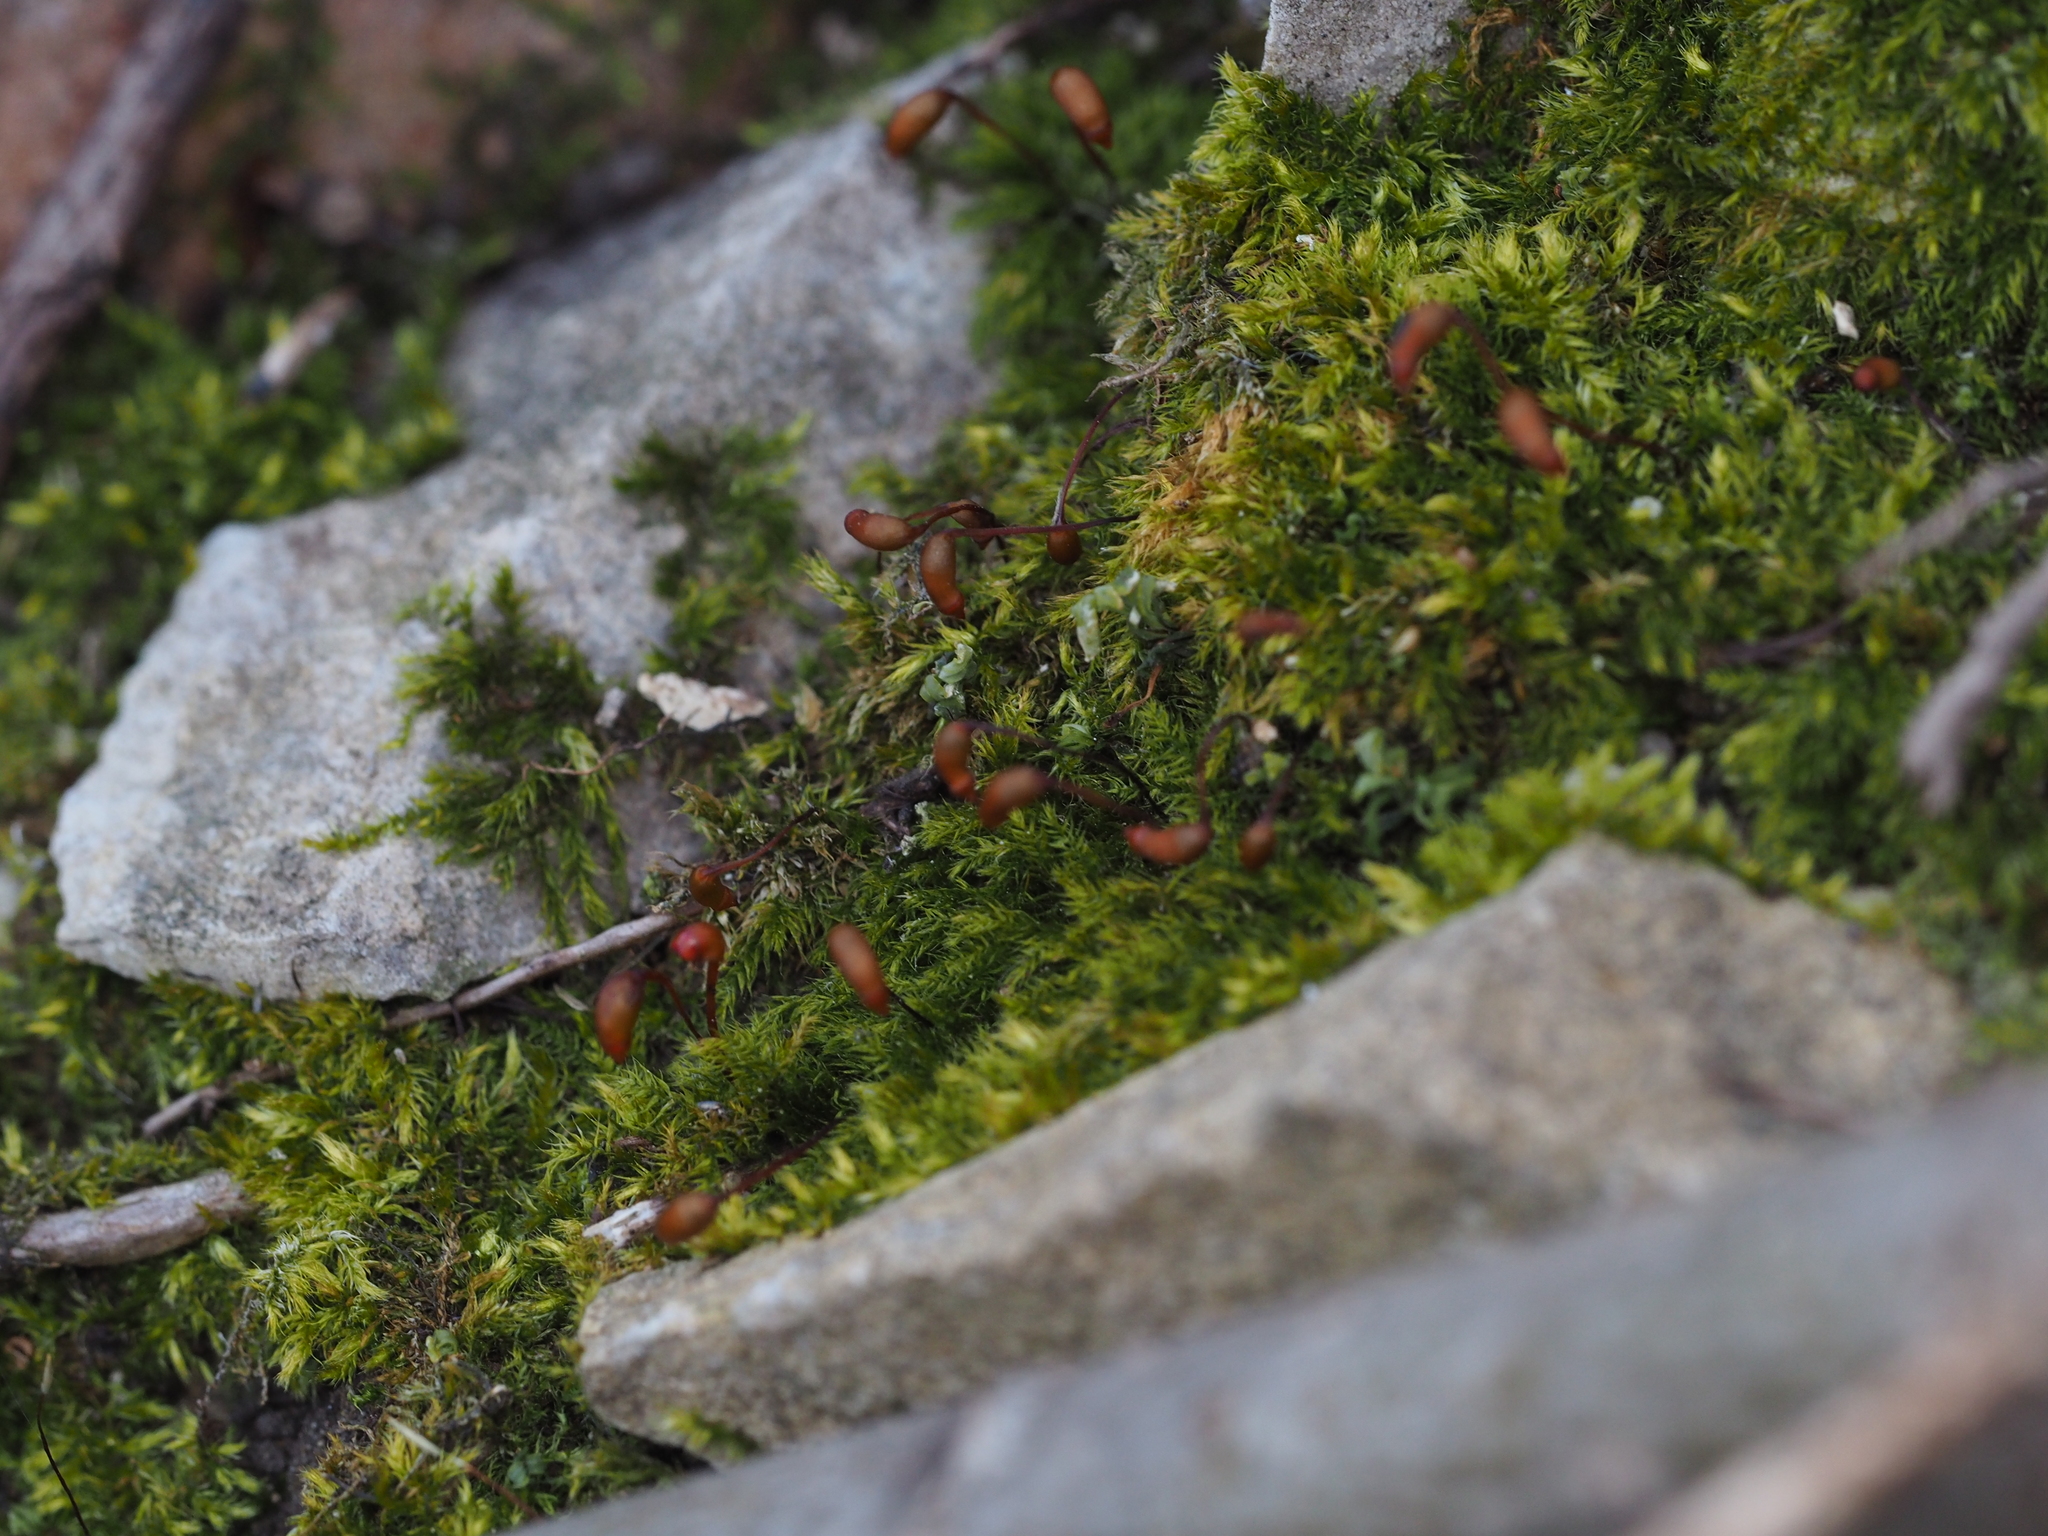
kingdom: Plantae
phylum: Bryophyta
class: Bryopsida
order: Hypnales
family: Brachytheciaceae
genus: Brachytheciastrum
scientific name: Brachytheciastrum velutinum
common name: Velvet feather-moss
